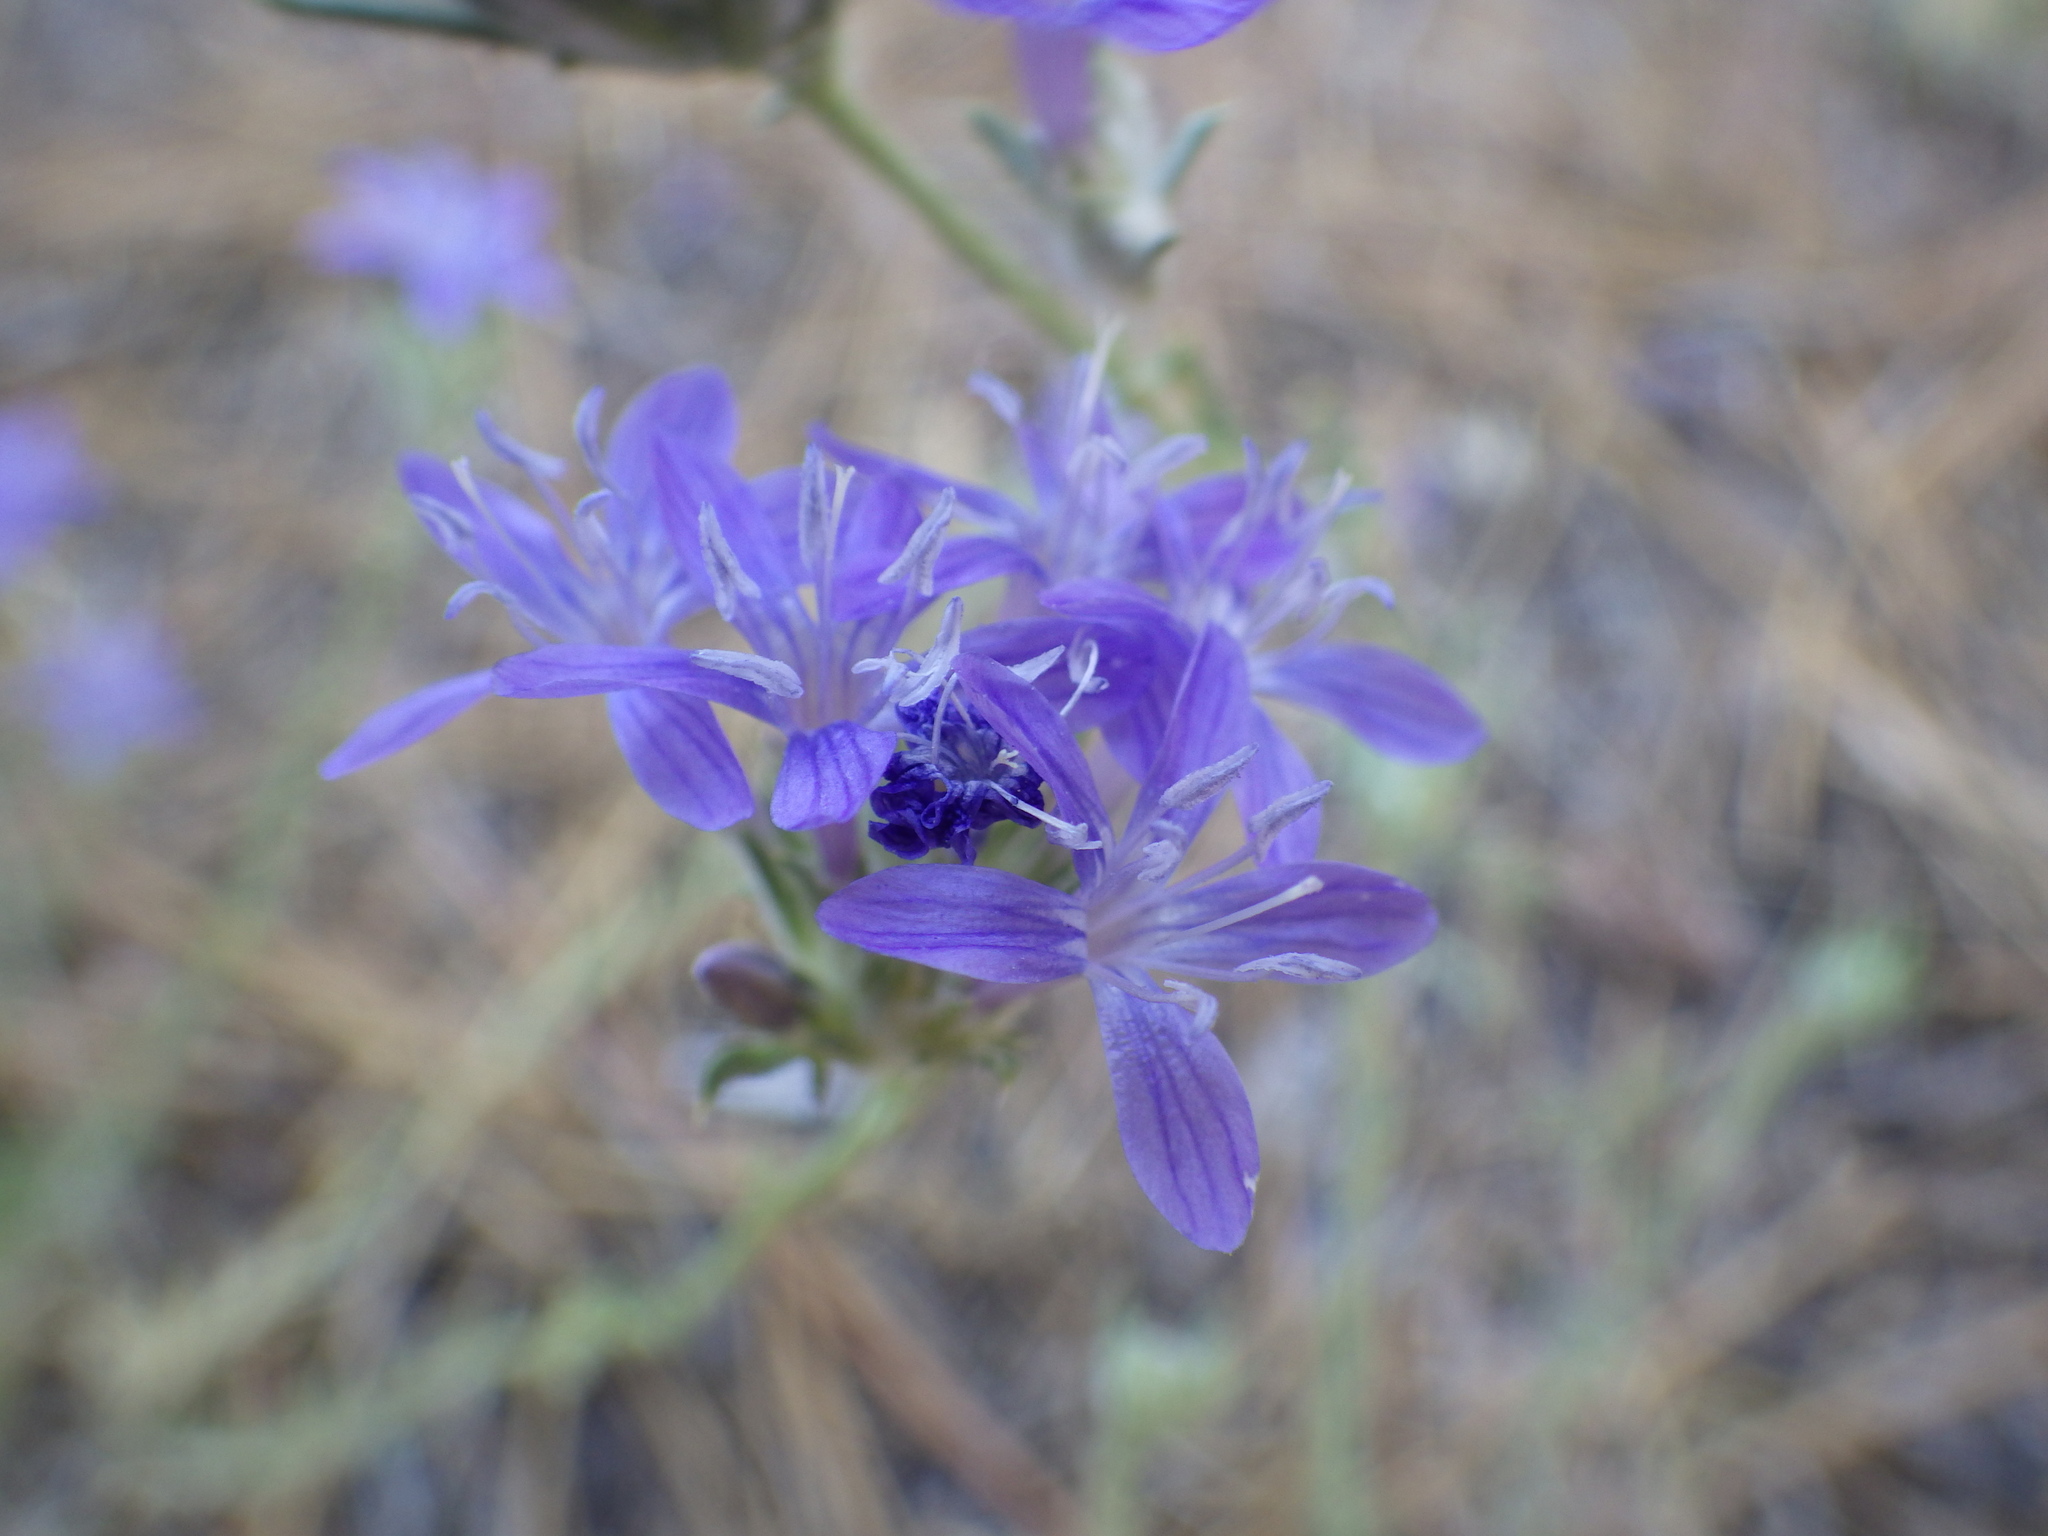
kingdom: Plantae
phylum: Tracheophyta
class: Magnoliopsida
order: Ericales
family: Polemoniaceae
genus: Eriastrum
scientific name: Eriastrum pluriflorum
